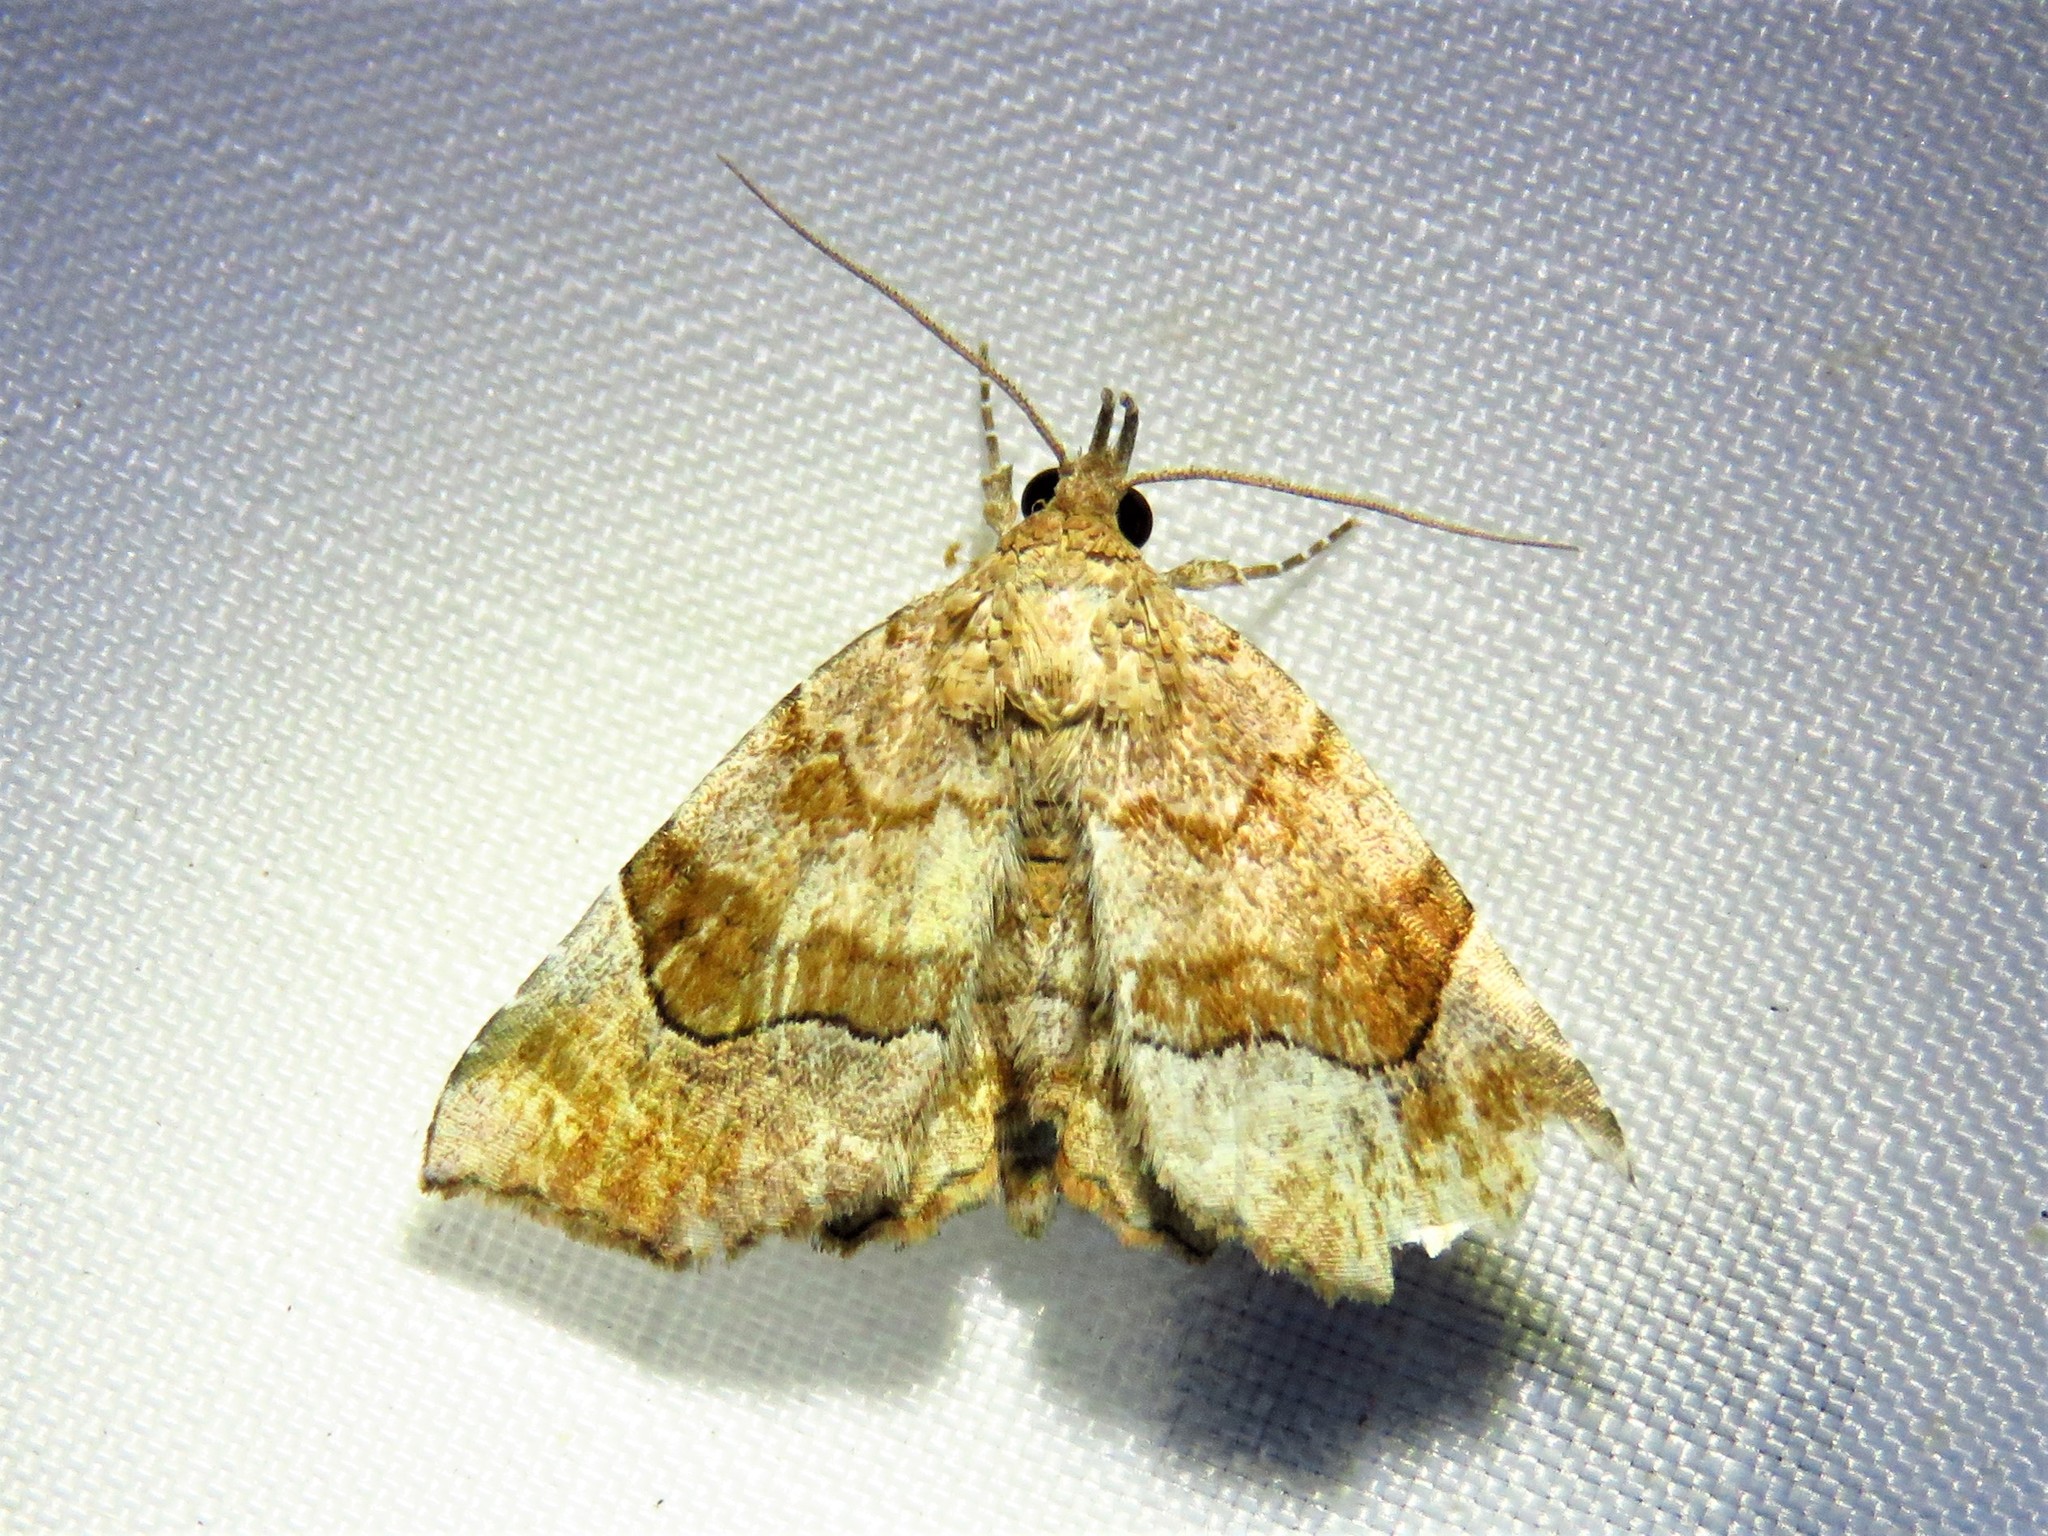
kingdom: Animalia
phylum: Arthropoda
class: Insecta
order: Lepidoptera
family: Erebidae
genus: Pangrapta
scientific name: Pangrapta decoralis
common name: Decorated owlet
